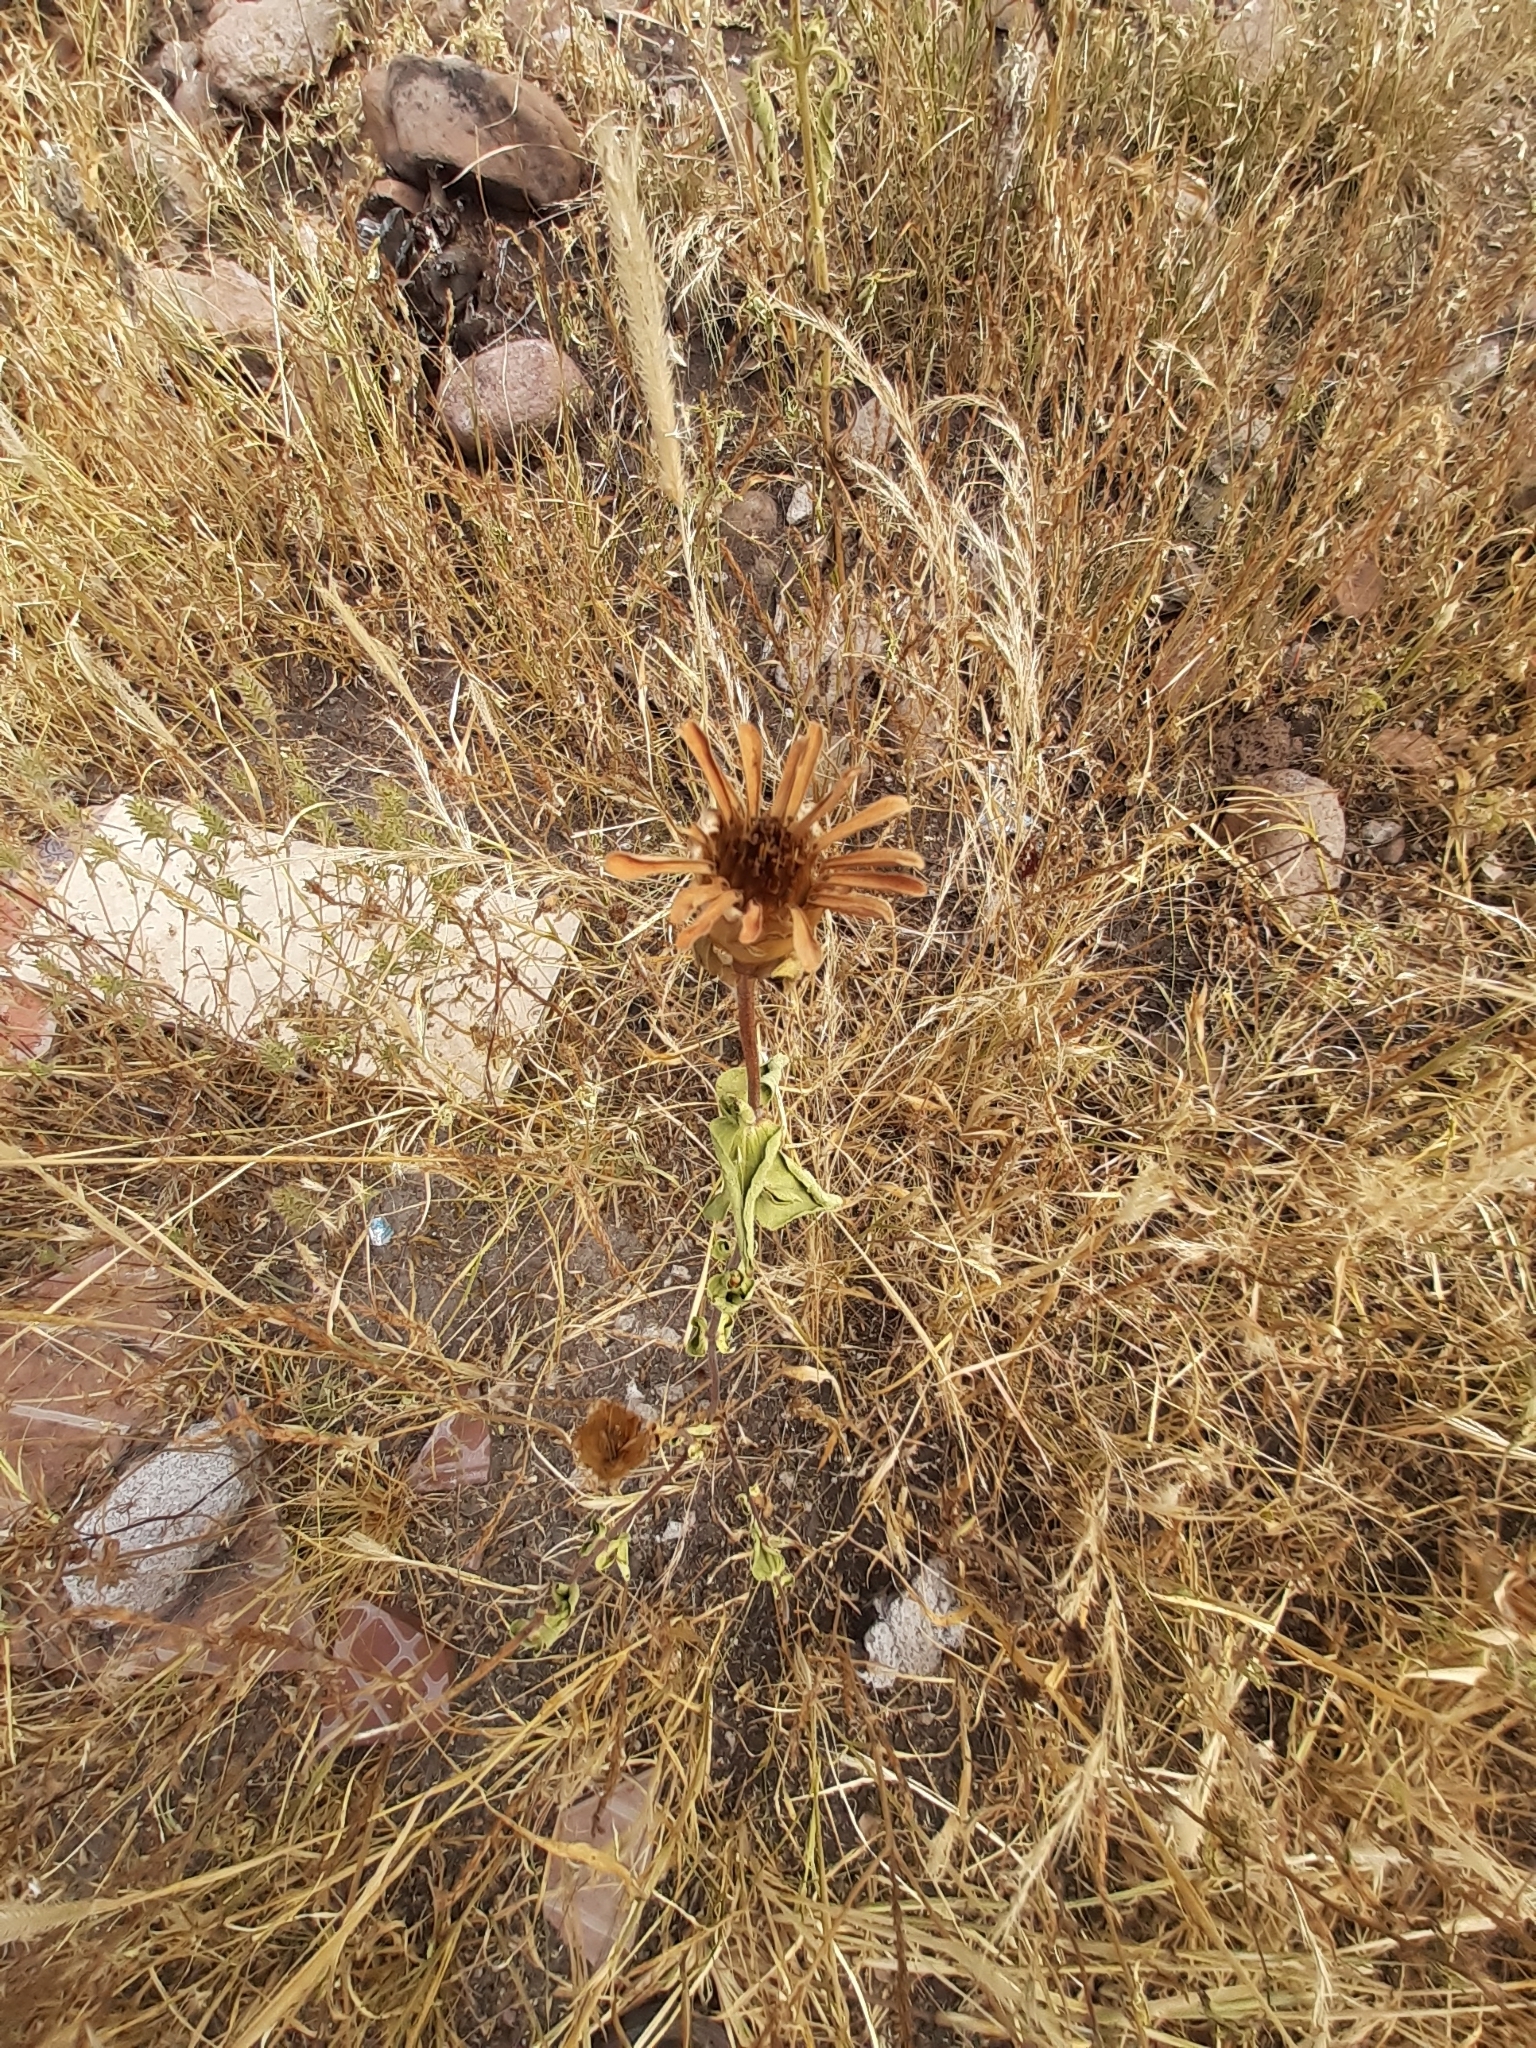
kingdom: Plantae
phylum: Tracheophyta
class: Magnoliopsida
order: Asterales
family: Asteraceae
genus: Zinnia
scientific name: Zinnia peruviana
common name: Peruvian zinnia
